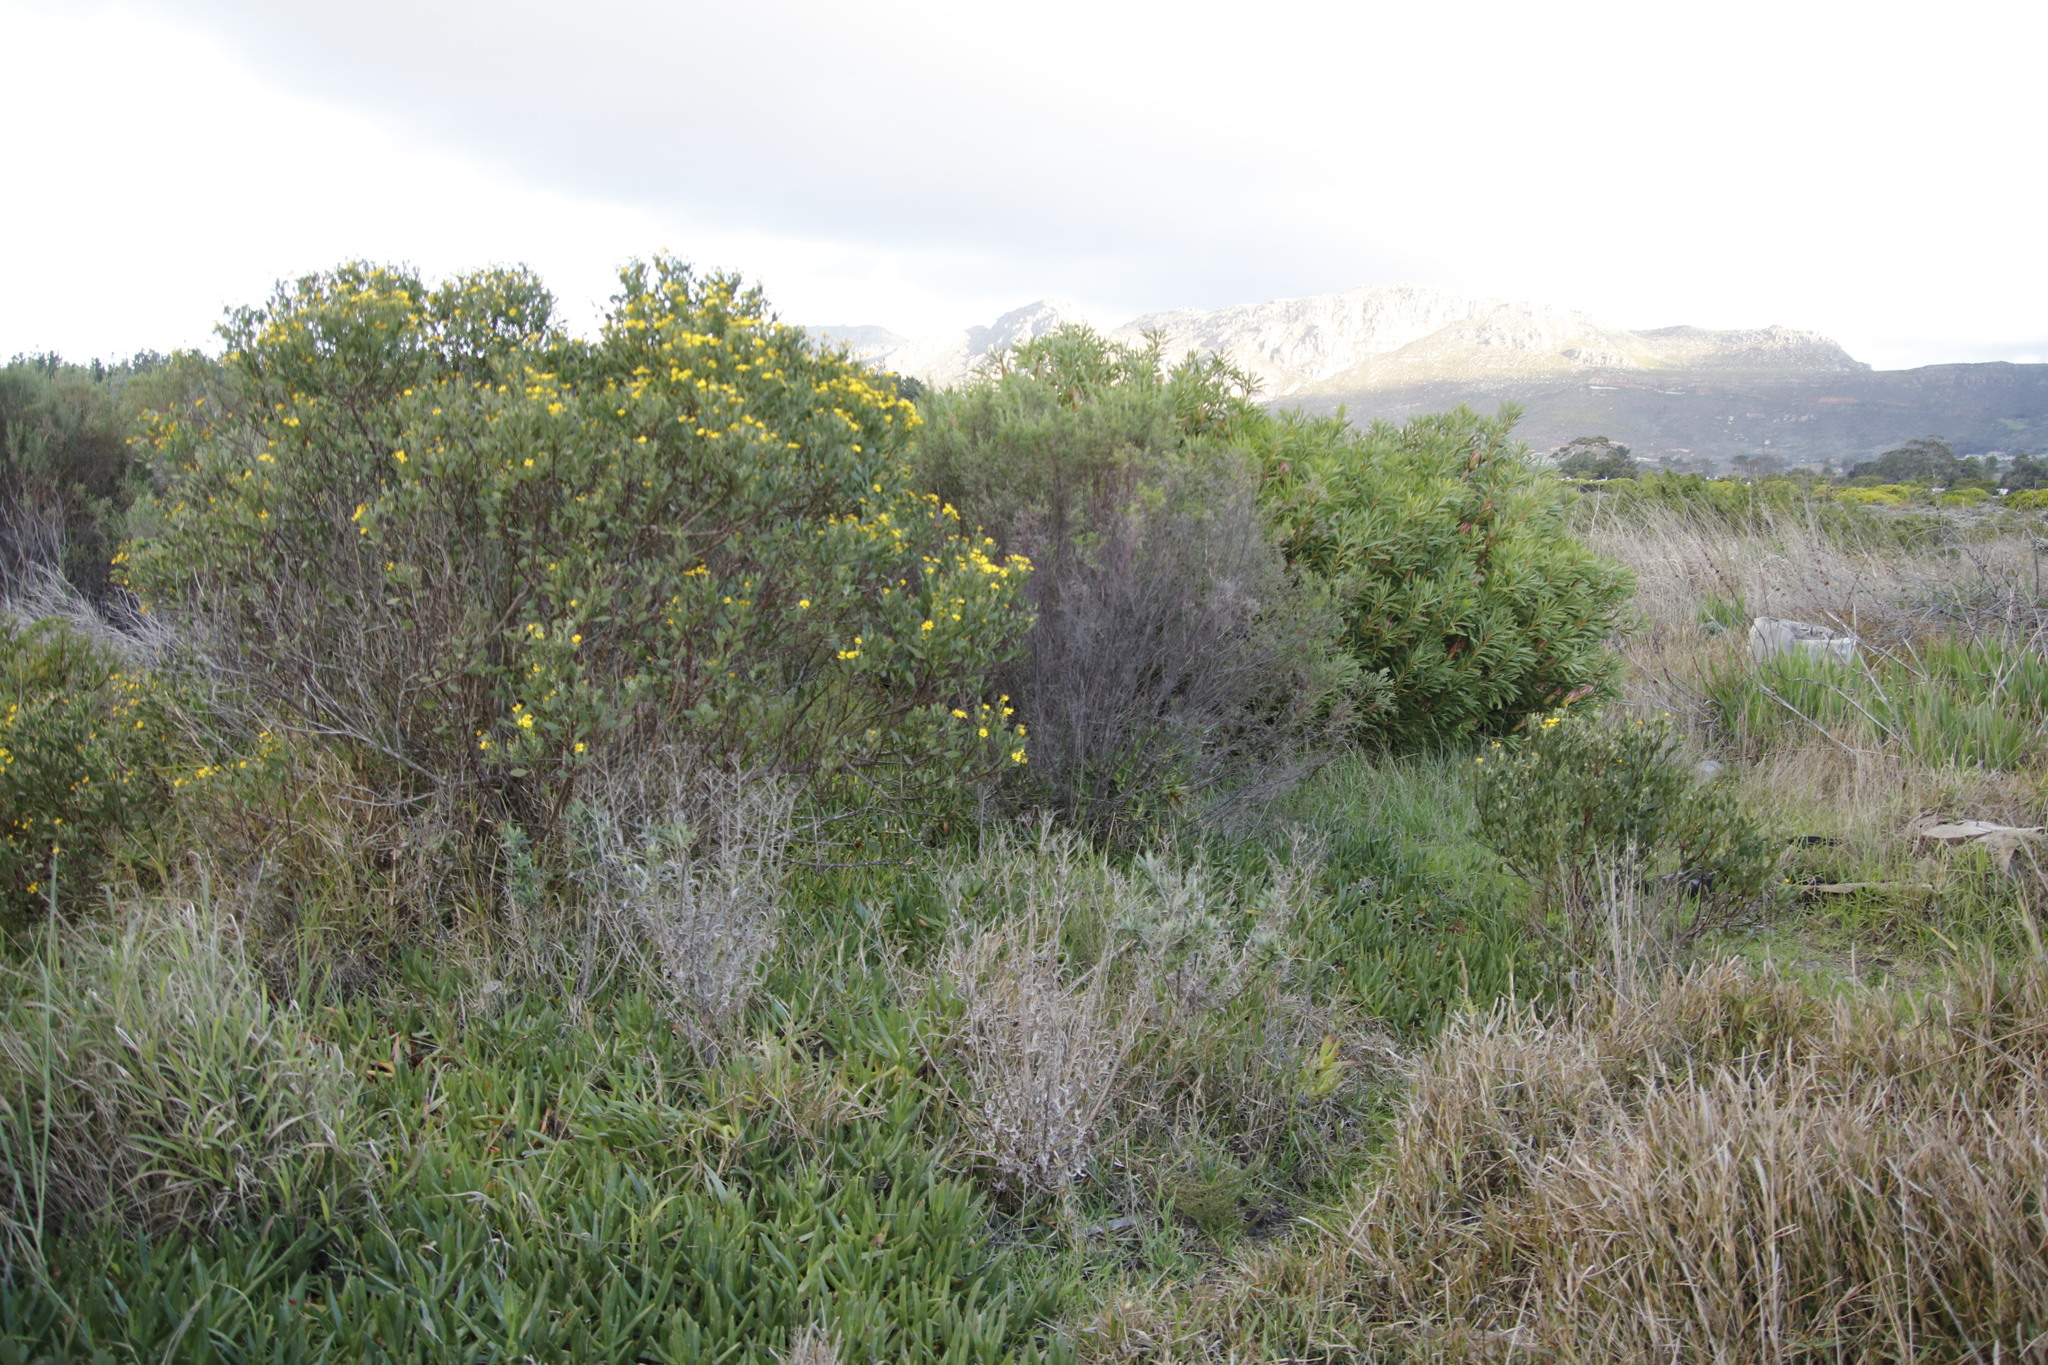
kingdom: Plantae
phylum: Tracheophyta
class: Magnoliopsida
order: Asterales
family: Asteraceae
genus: Osteospermum
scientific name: Osteospermum moniliferum
